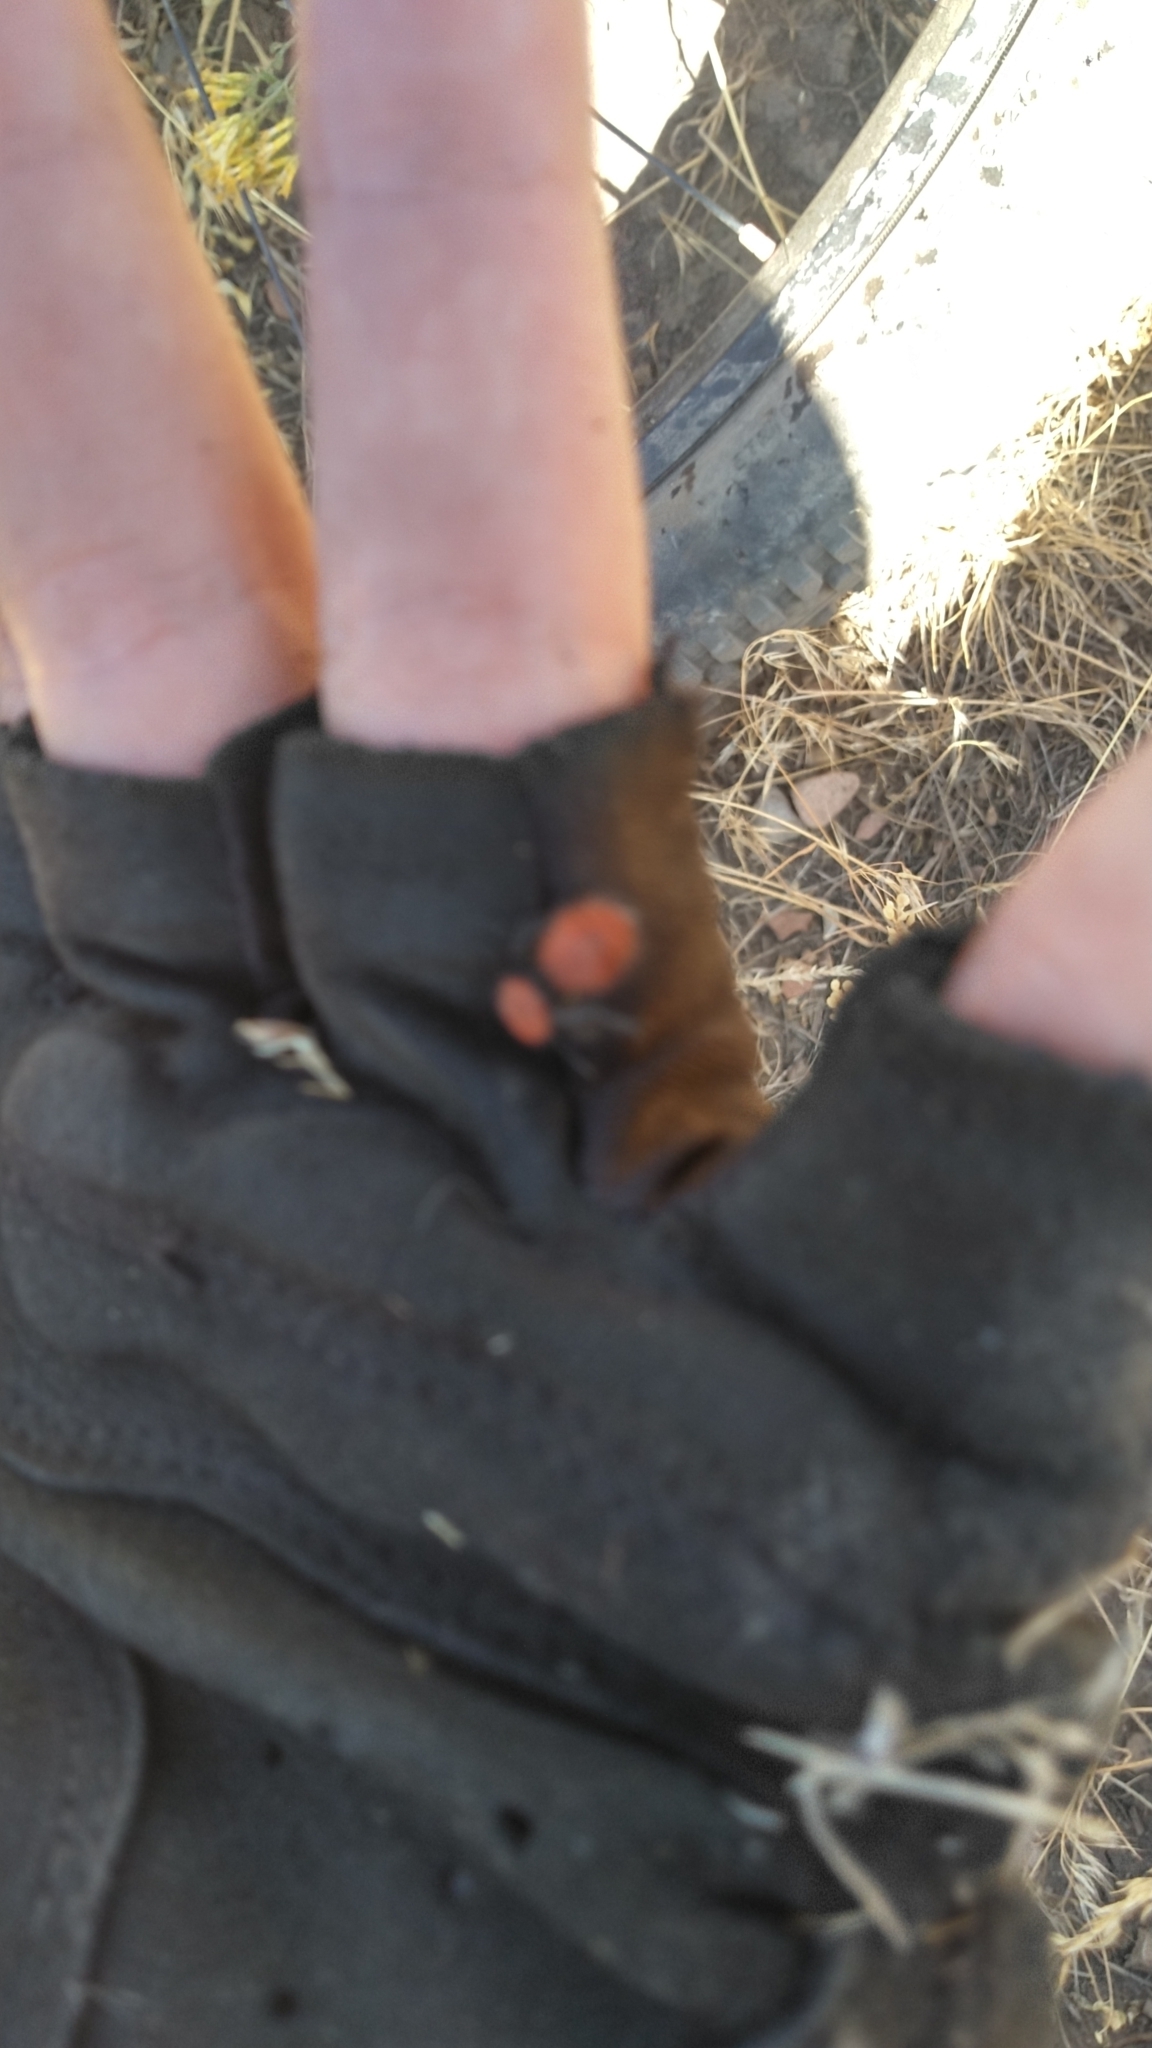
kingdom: Animalia
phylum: Arthropoda
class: Insecta
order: Hymenoptera
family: Mutillidae
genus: Dasymutilla
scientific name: Dasymutilla vestita
